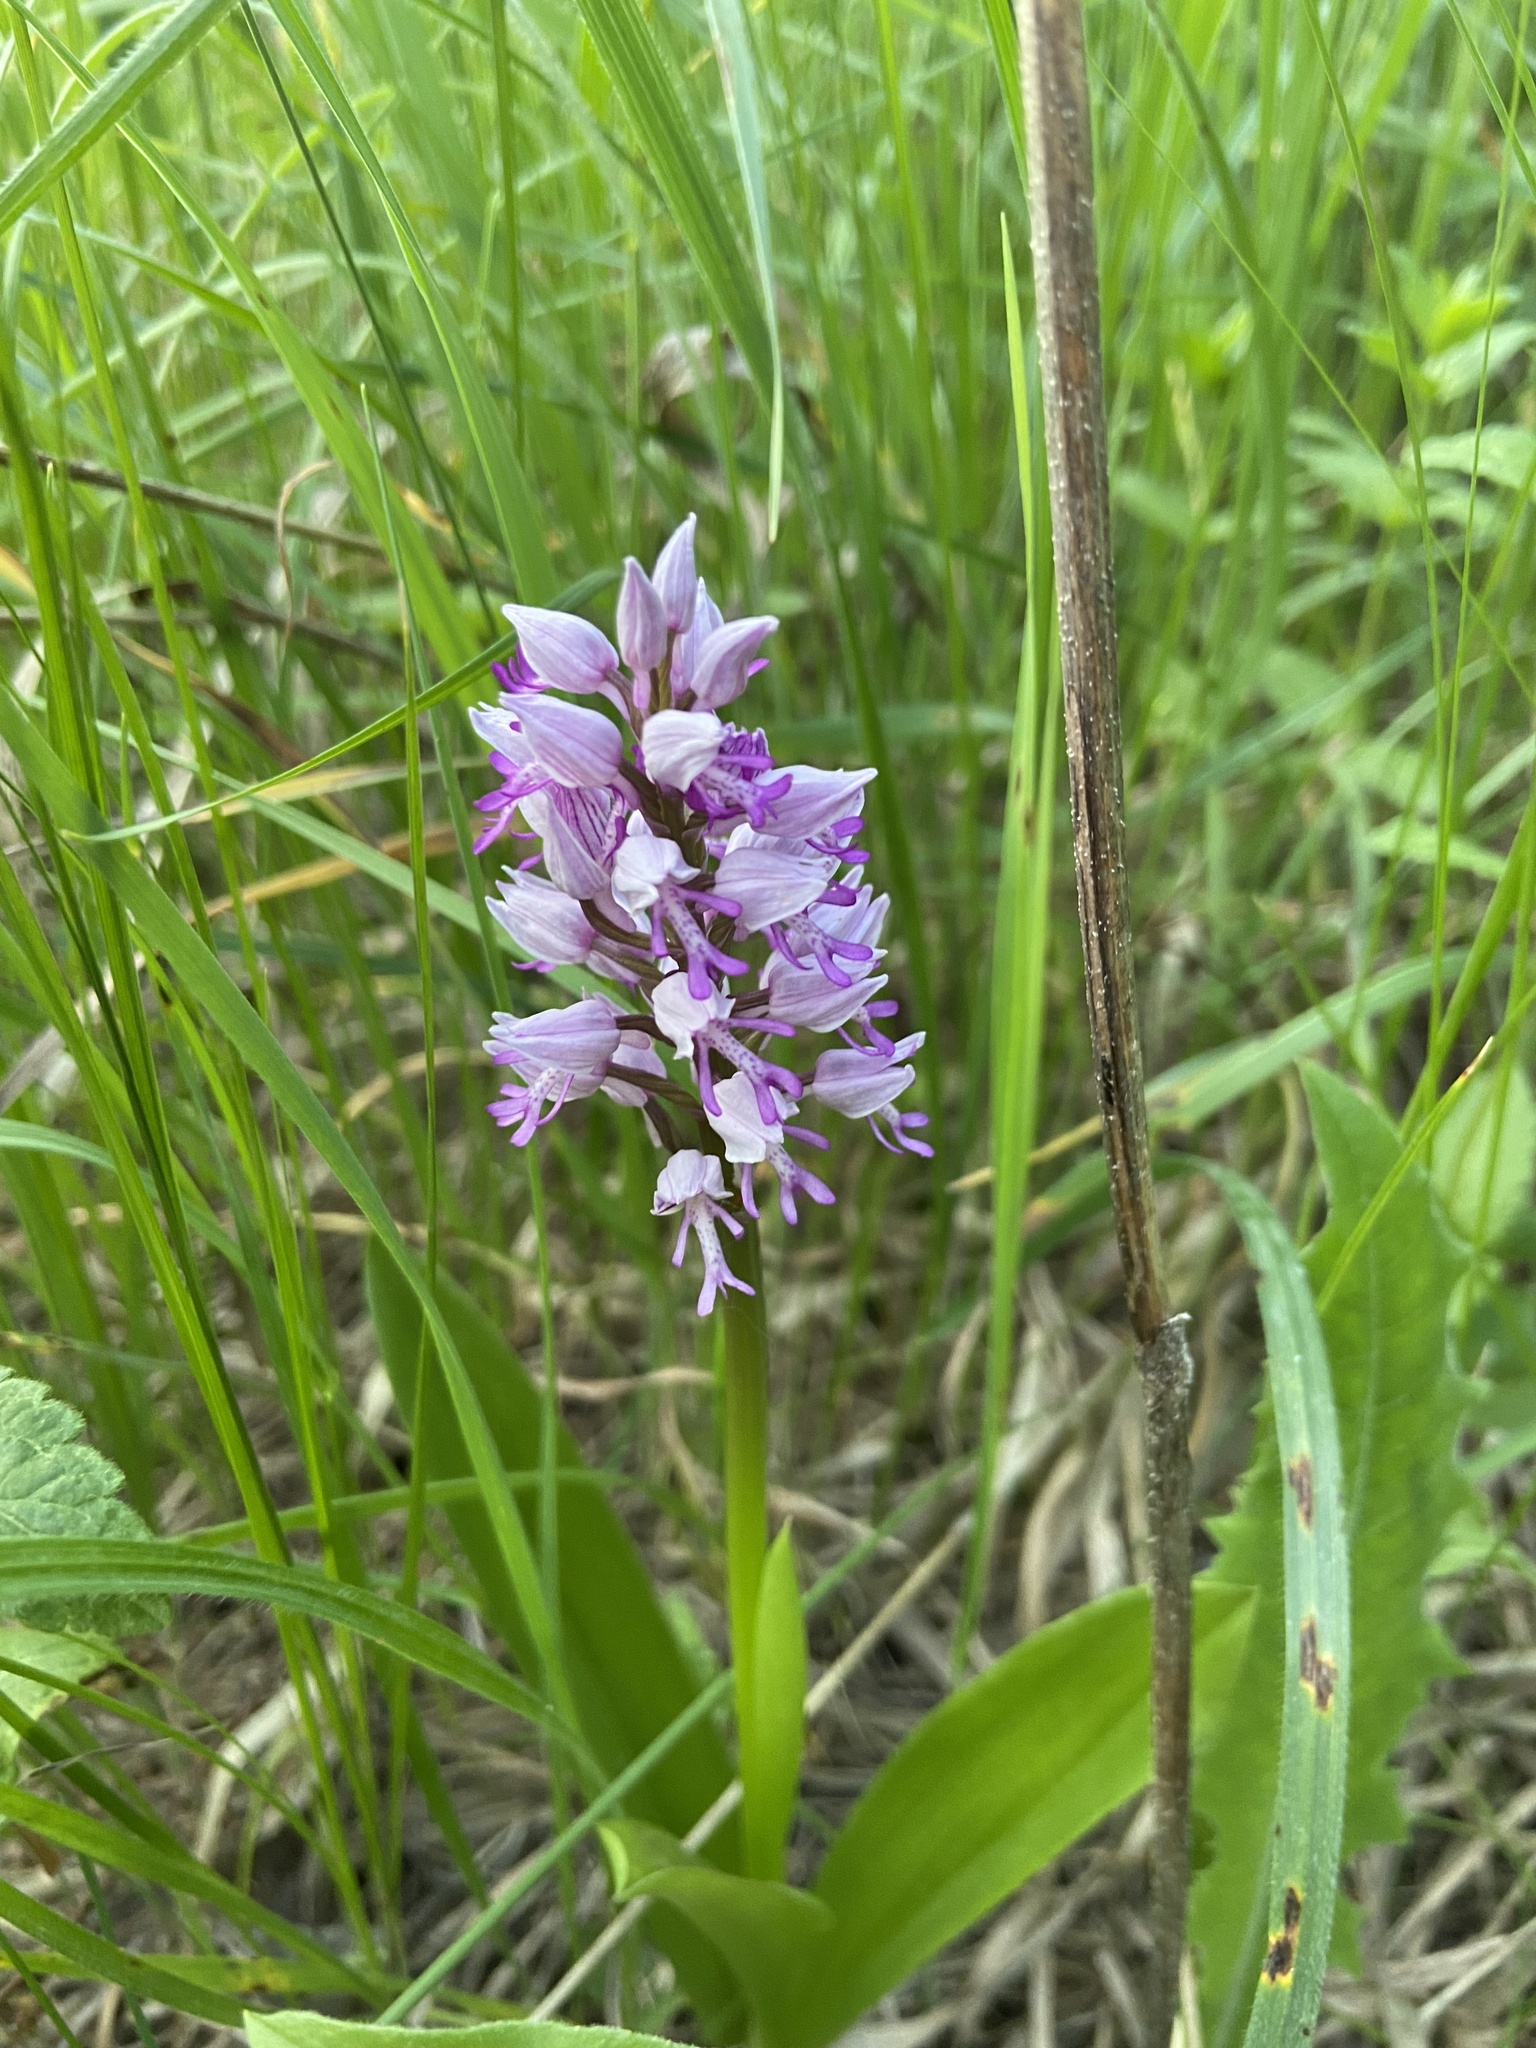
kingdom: Plantae
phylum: Tracheophyta
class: Liliopsida
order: Asparagales
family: Orchidaceae
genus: Orchis
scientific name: Orchis militaris
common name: Military orchid
